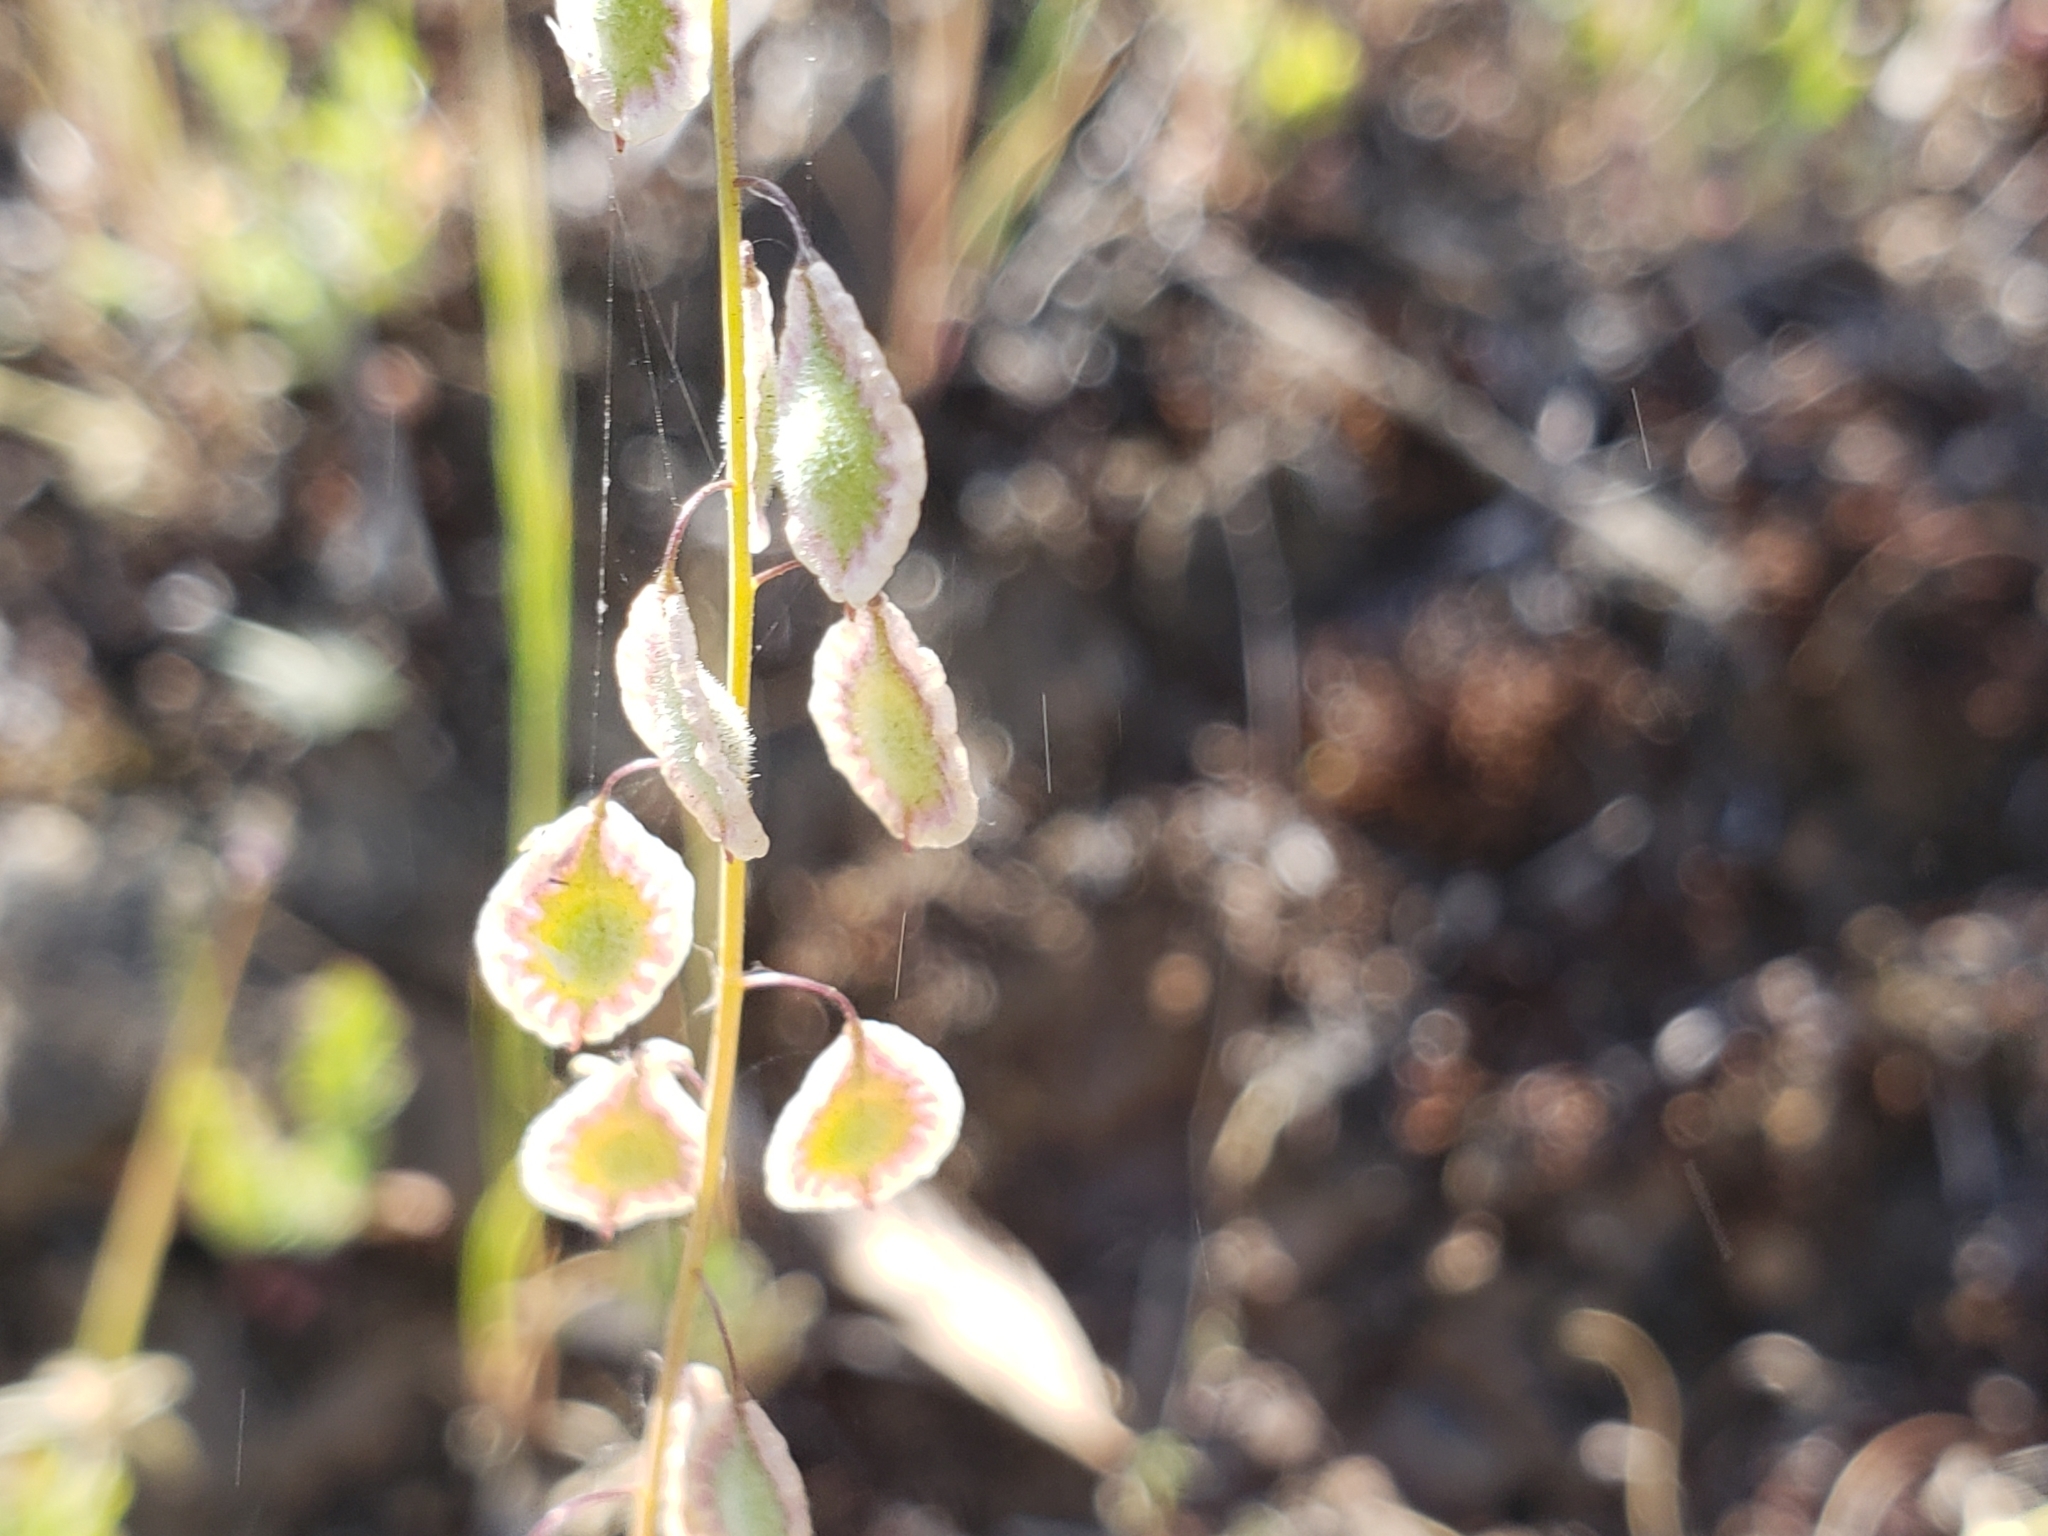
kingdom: Plantae
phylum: Tracheophyta
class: Magnoliopsida
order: Brassicales
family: Brassicaceae
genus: Thysanocarpus
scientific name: Thysanocarpus curvipes
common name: Sand fringepod
